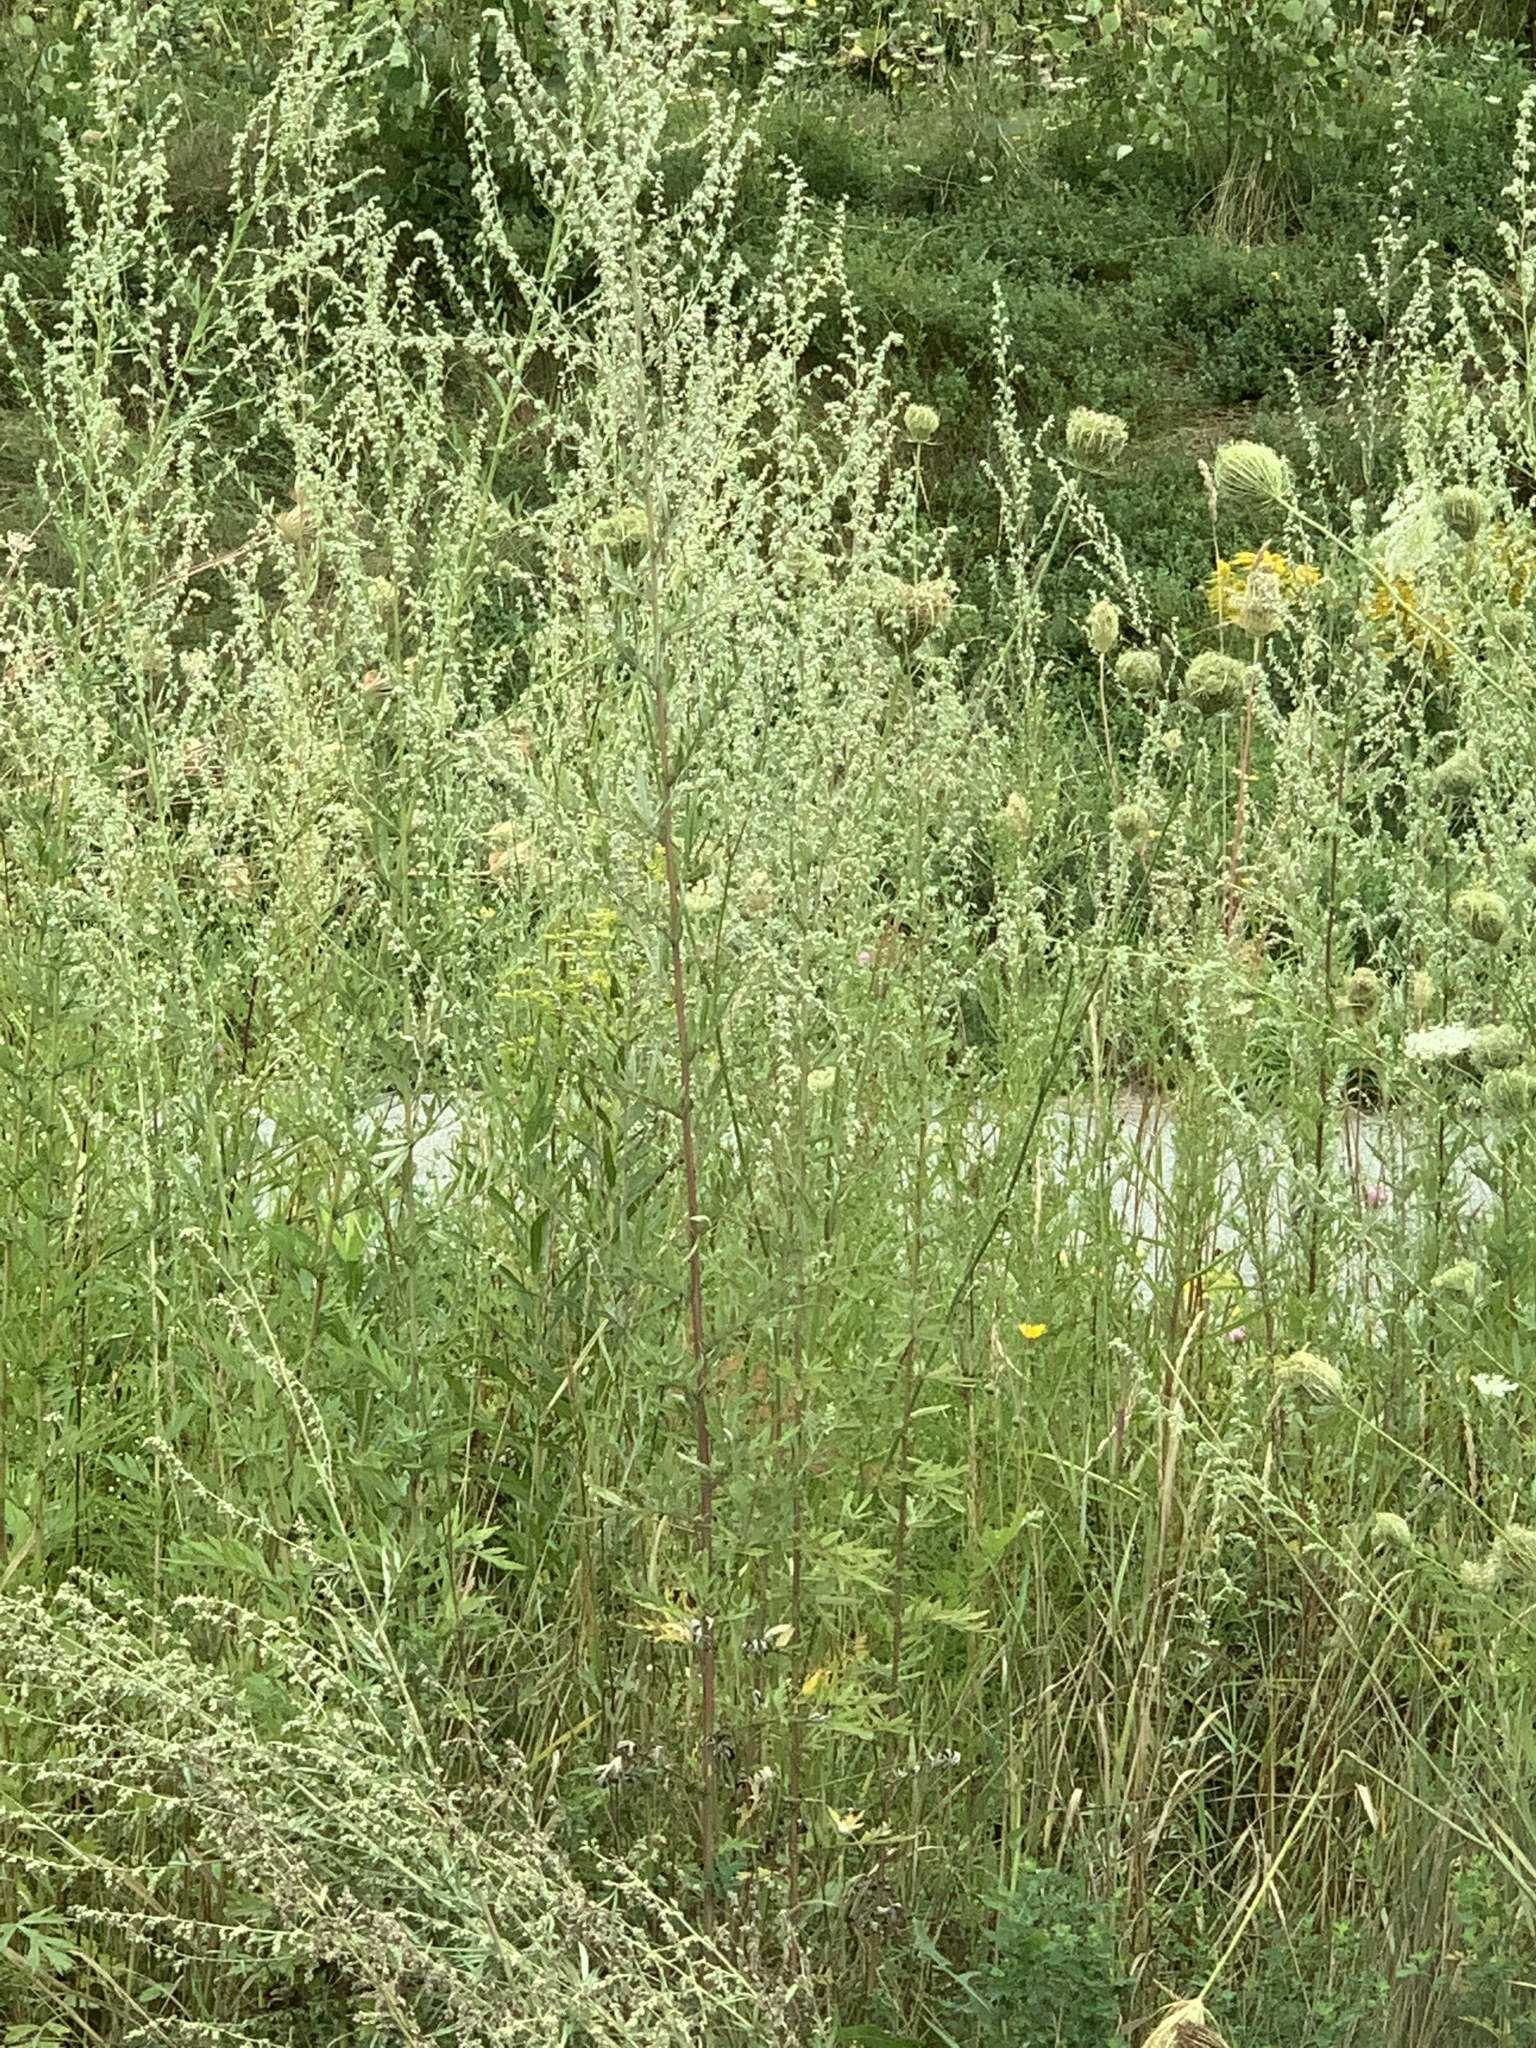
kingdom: Plantae
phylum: Tracheophyta
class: Magnoliopsida
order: Asterales
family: Asteraceae
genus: Artemisia
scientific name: Artemisia vulgaris
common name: Mugwort
